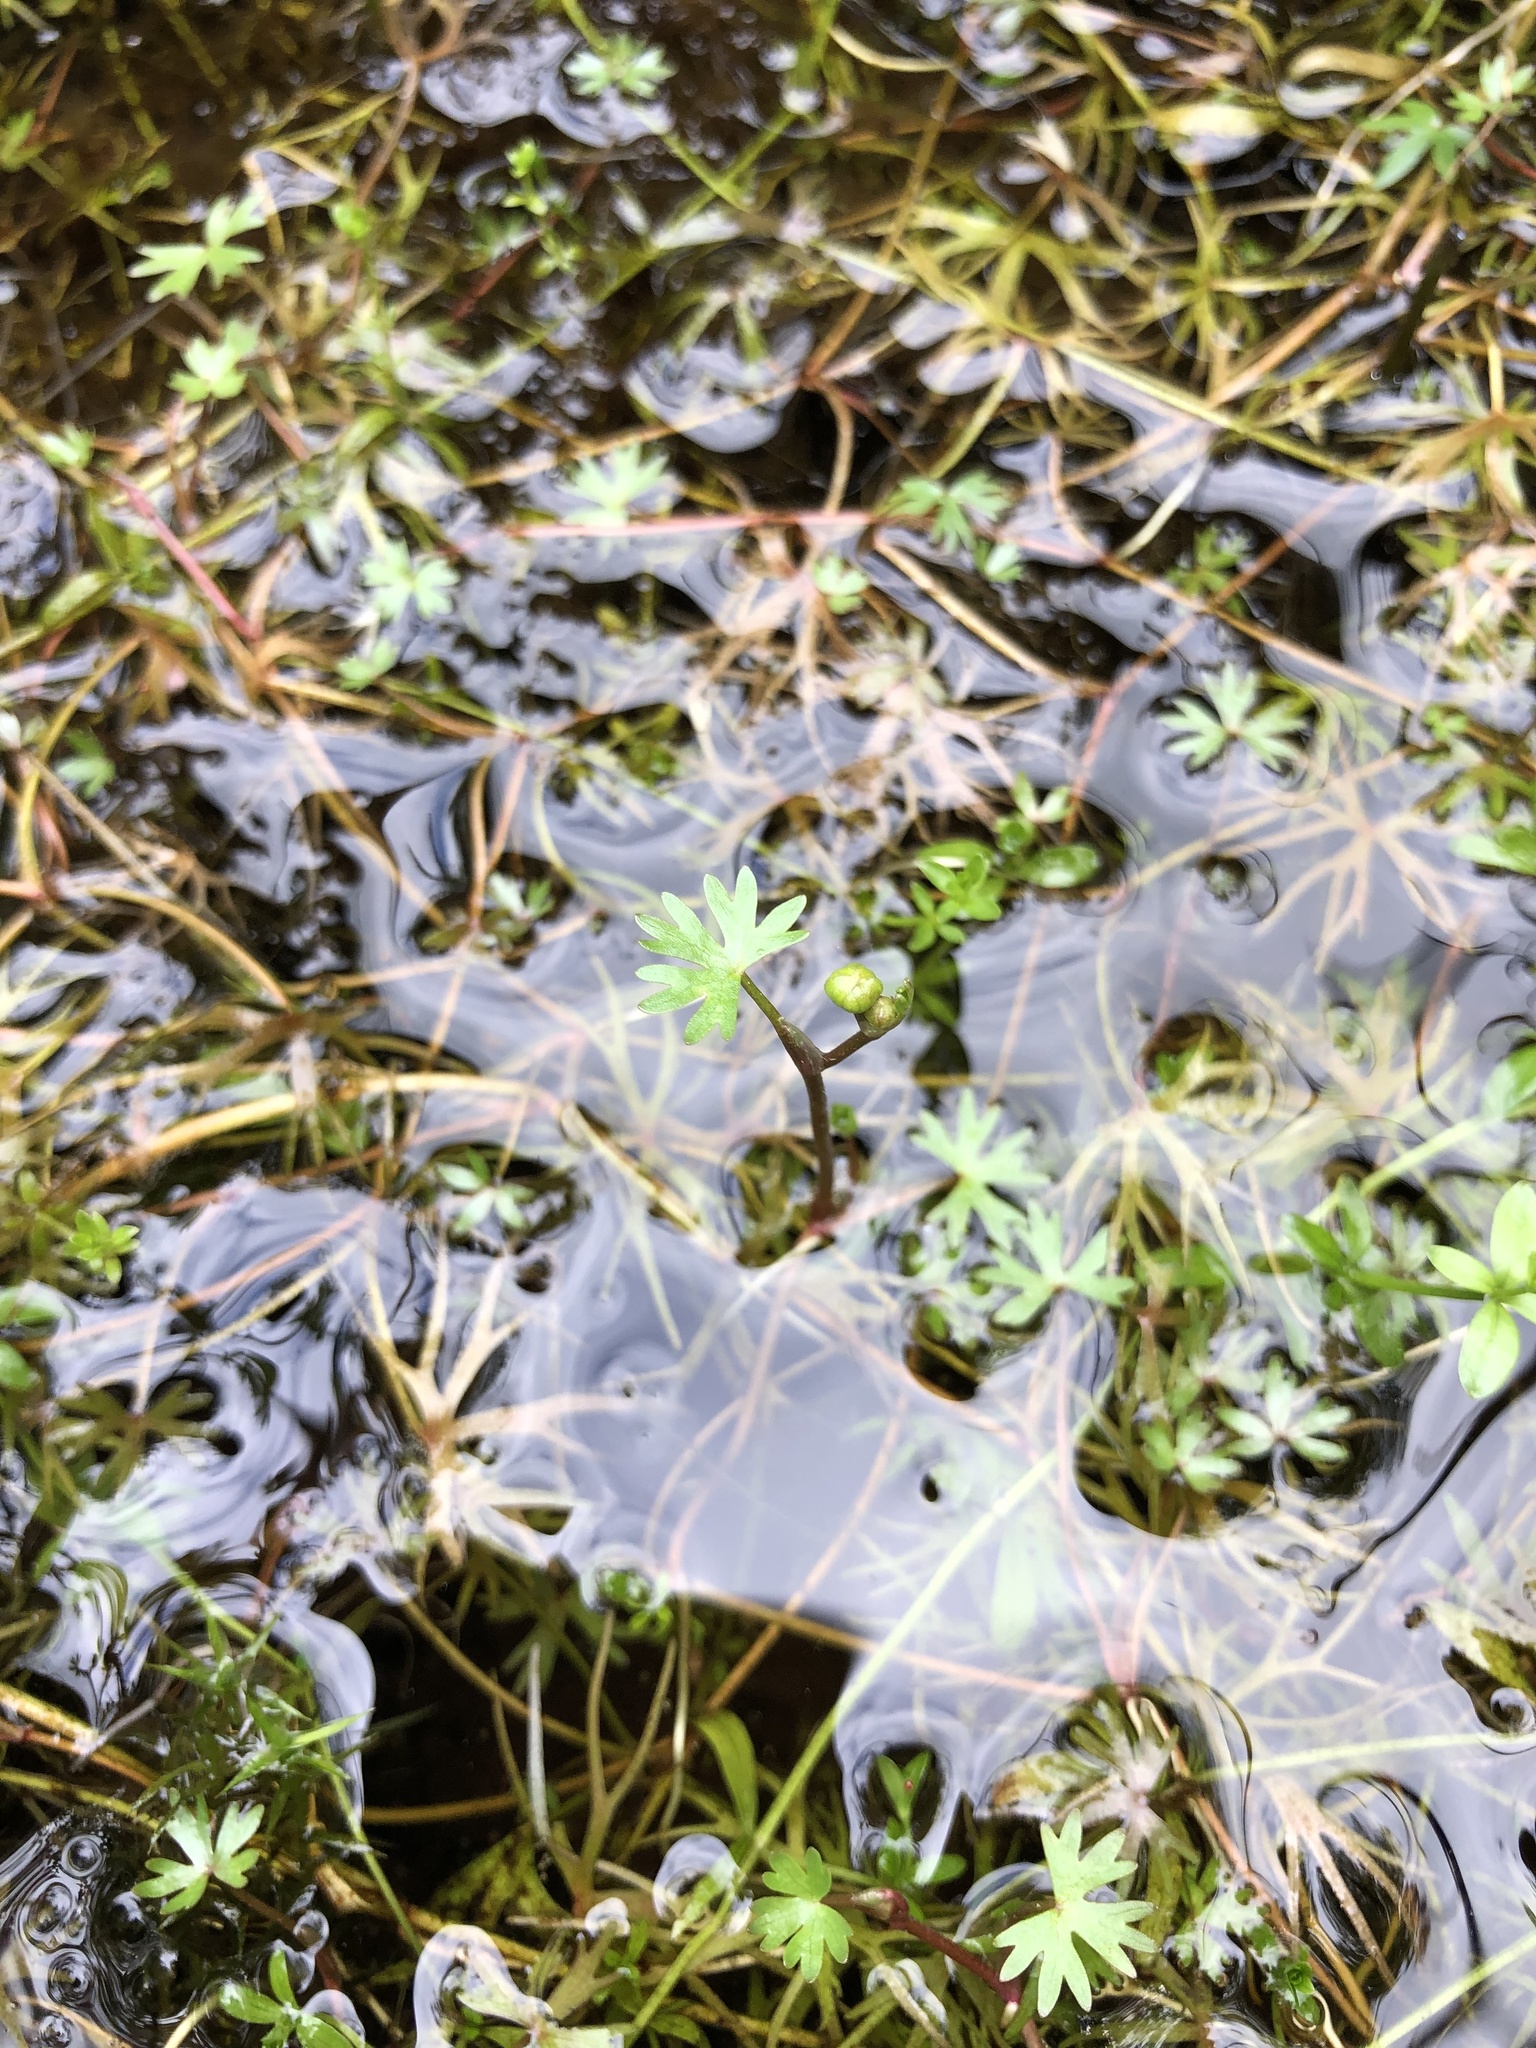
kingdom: Plantae
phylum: Tracheophyta
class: Magnoliopsida
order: Ranunculales
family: Ranunculaceae
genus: Ranunculus
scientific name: Ranunculus gmelinii
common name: Gmelin's buttercup
